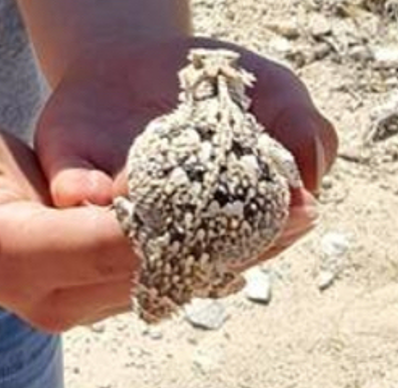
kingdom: Animalia
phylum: Chordata
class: Squamata
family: Phrynosomatidae
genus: Phrynosoma
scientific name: Phrynosoma platyrhinos
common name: Desert horned lizard
